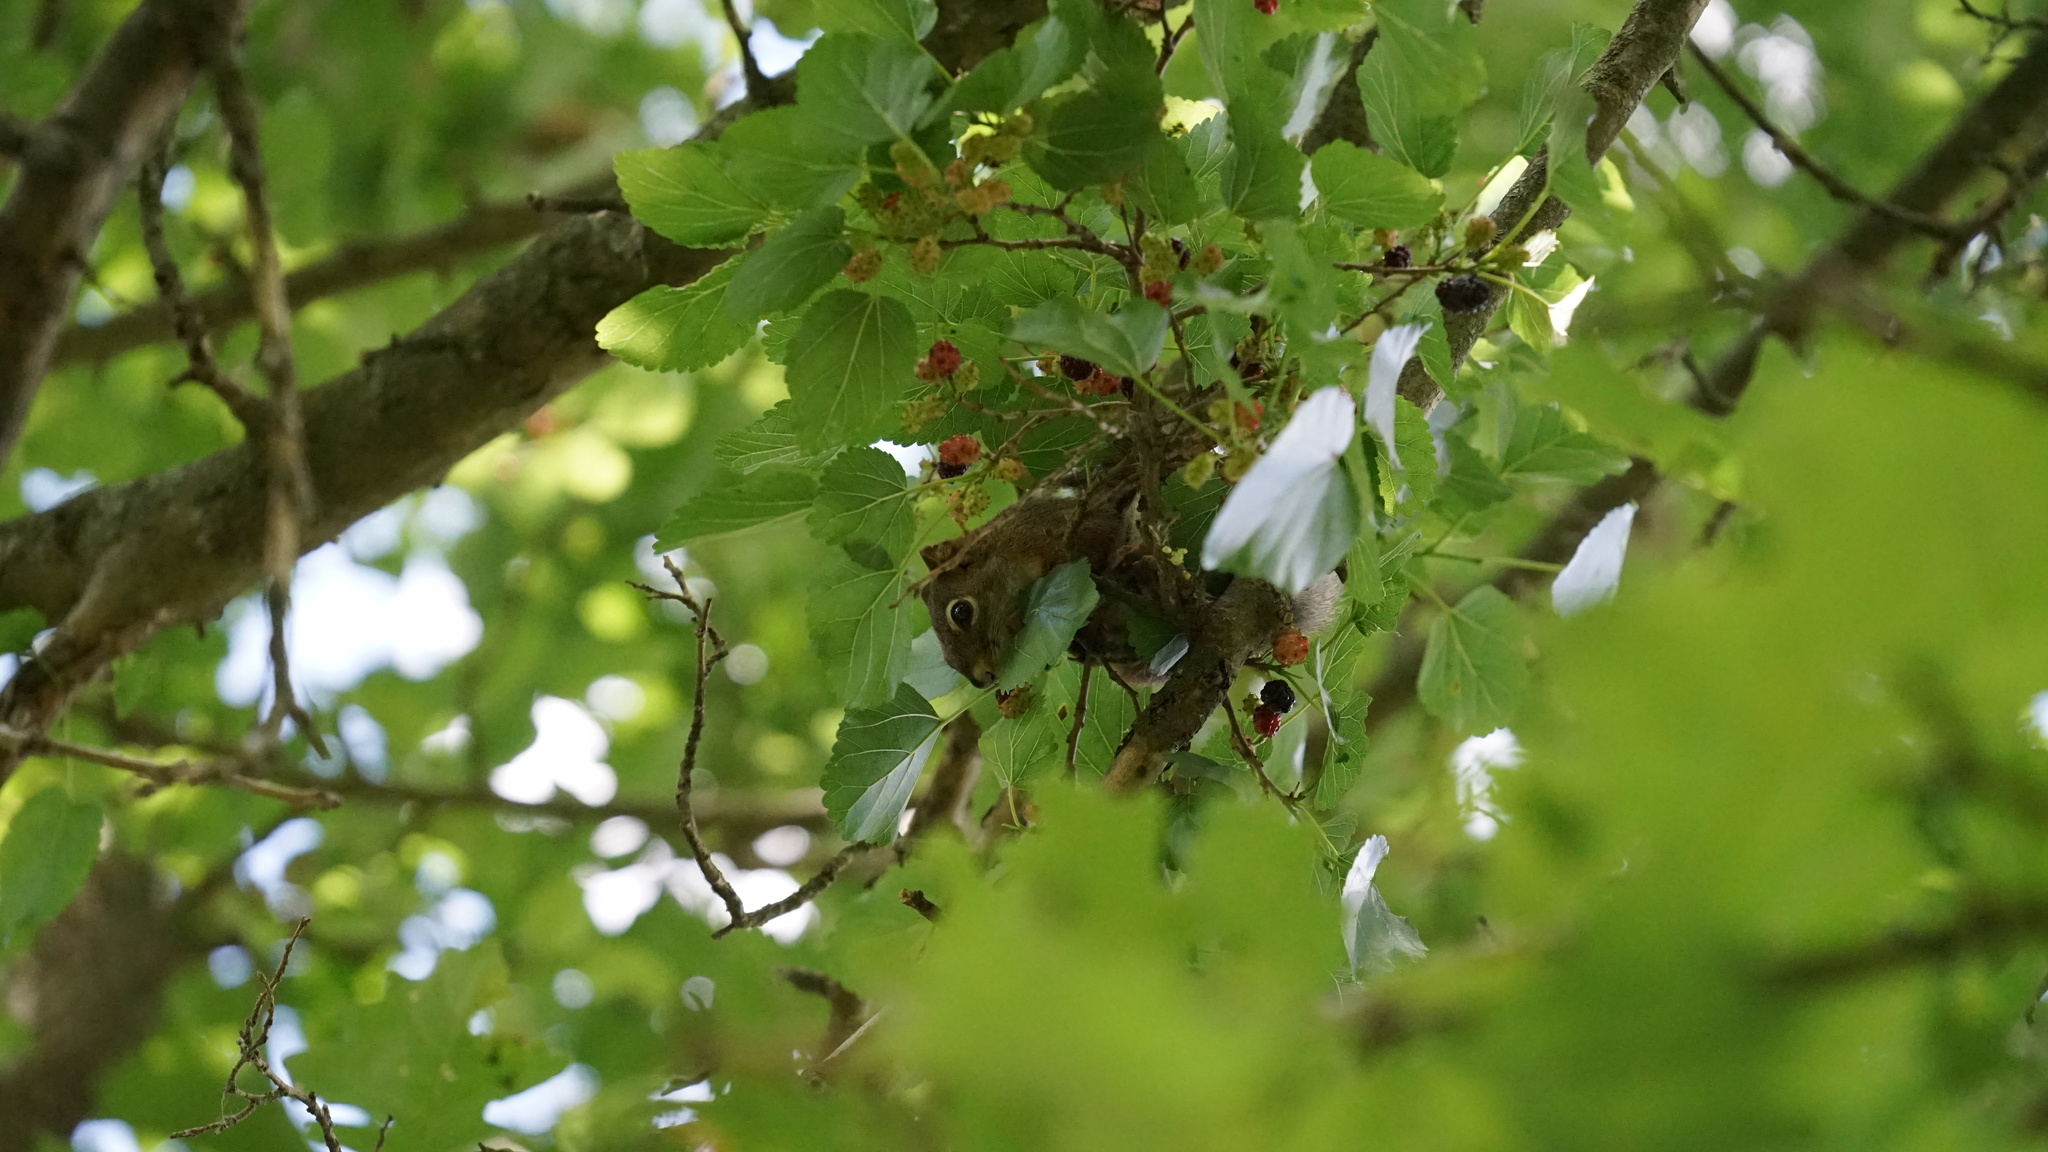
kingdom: Animalia
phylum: Chordata
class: Mammalia
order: Rodentia
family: Sciuridae
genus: Tamiasciurus
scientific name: Tamiasciurus hudsonicus
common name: Red squirrel
